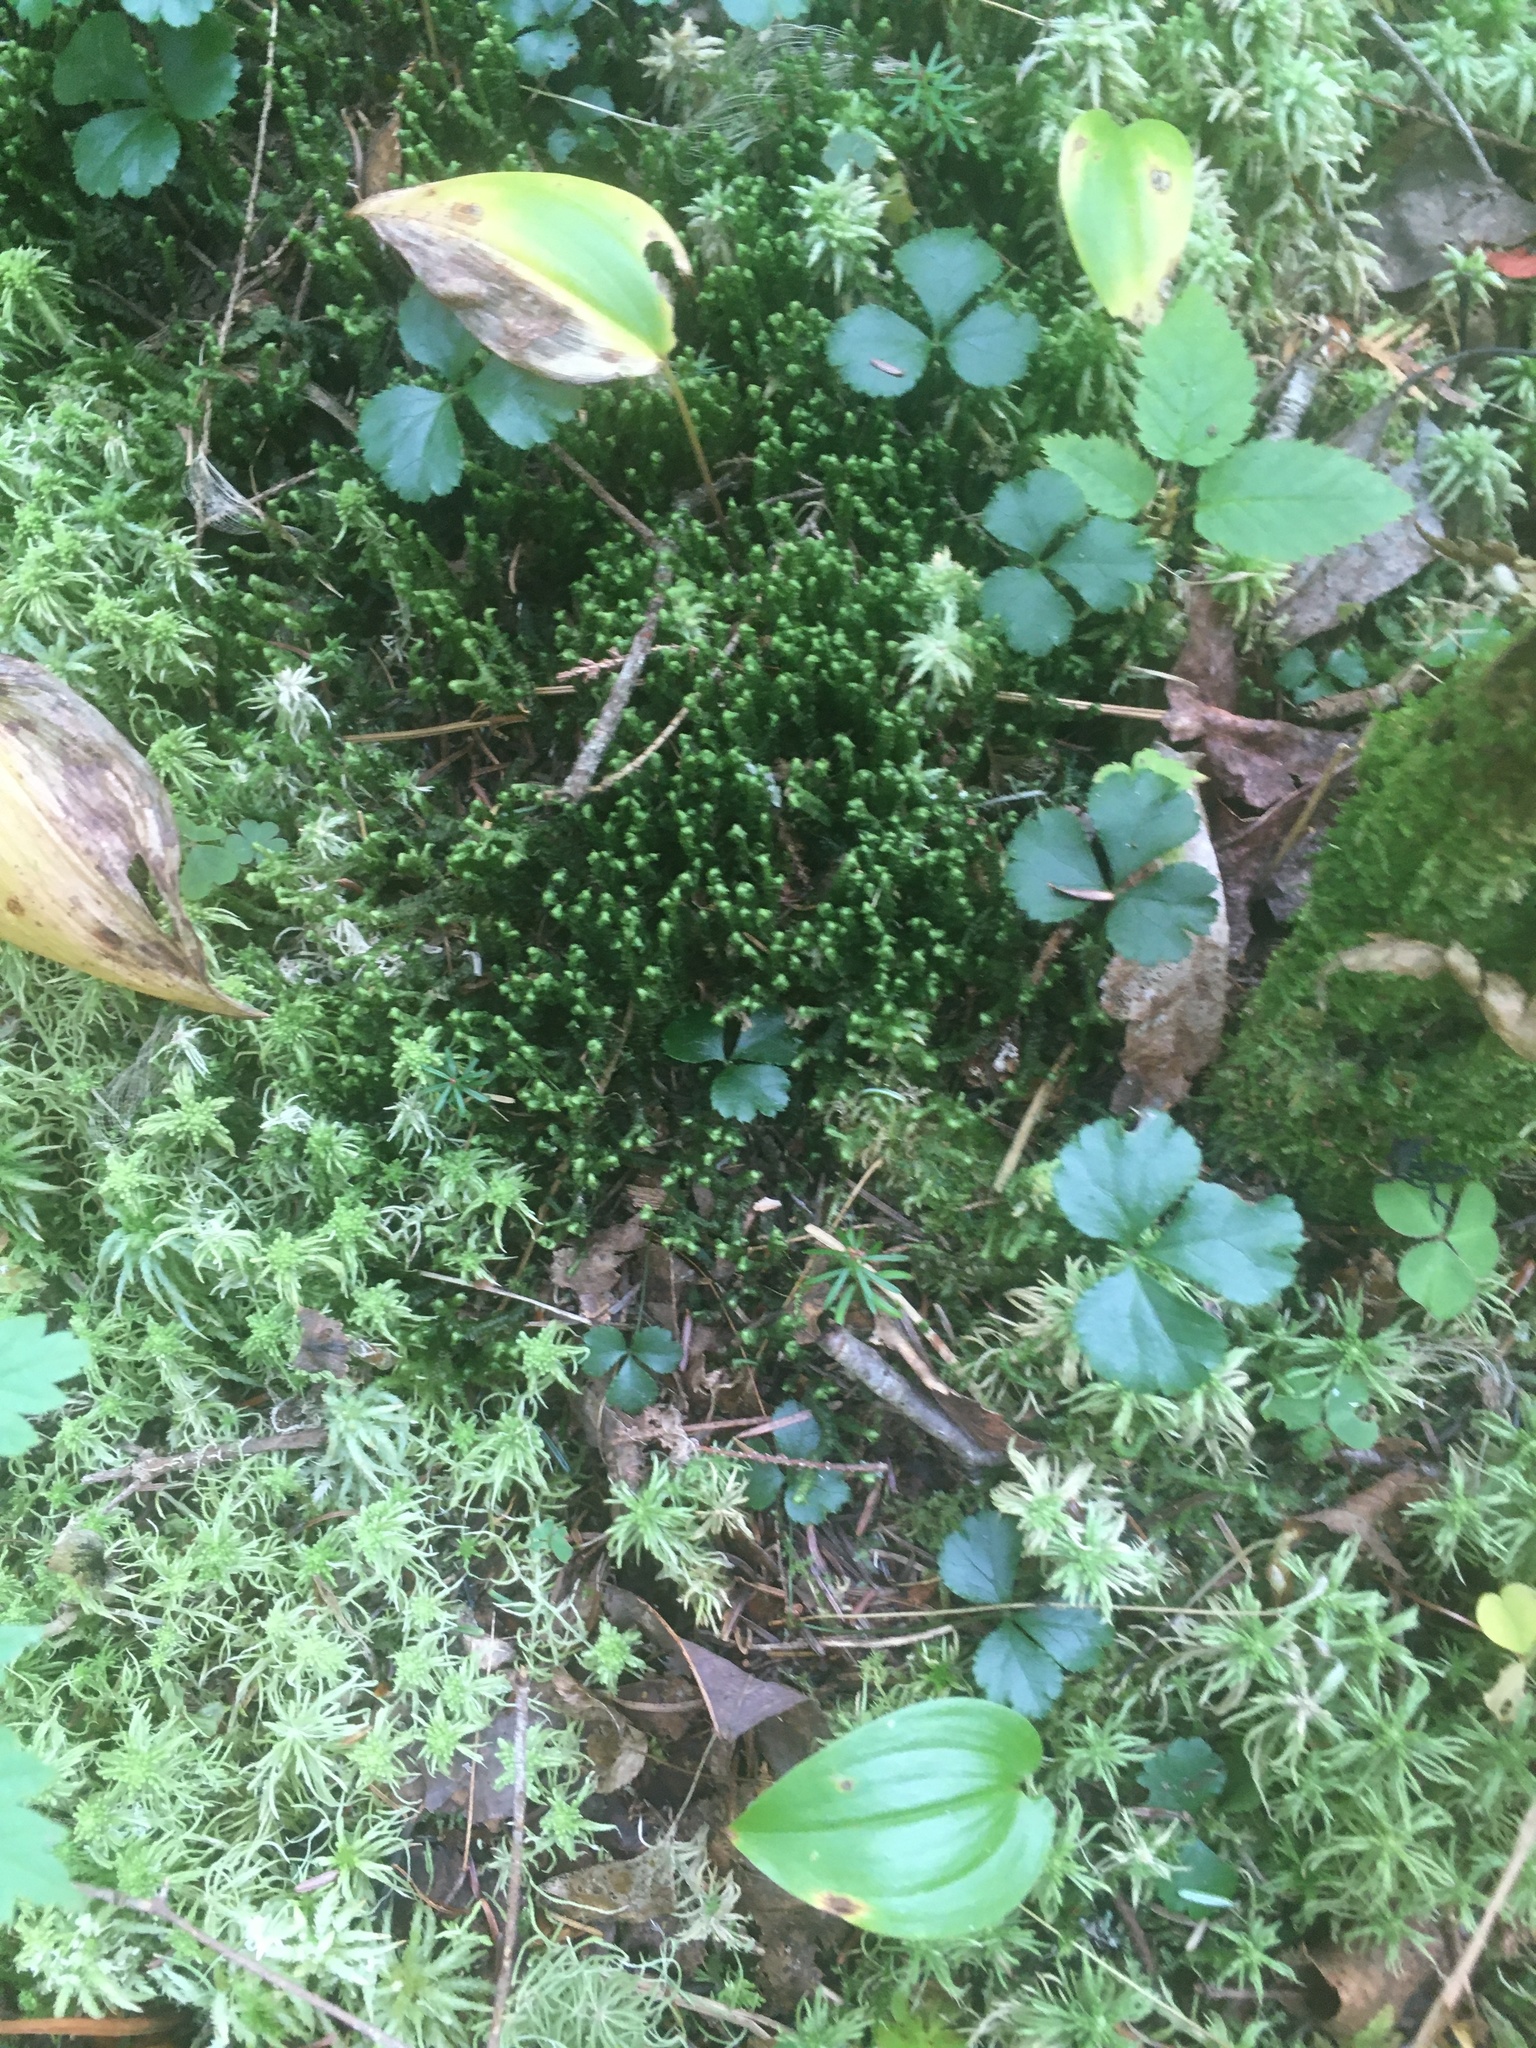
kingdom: Plantae
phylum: Tracheophyta
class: Magnoliopsida
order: Ranunculales
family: Ranunculaceae
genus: Coptis
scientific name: Coptis trifolia
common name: Canker-root
